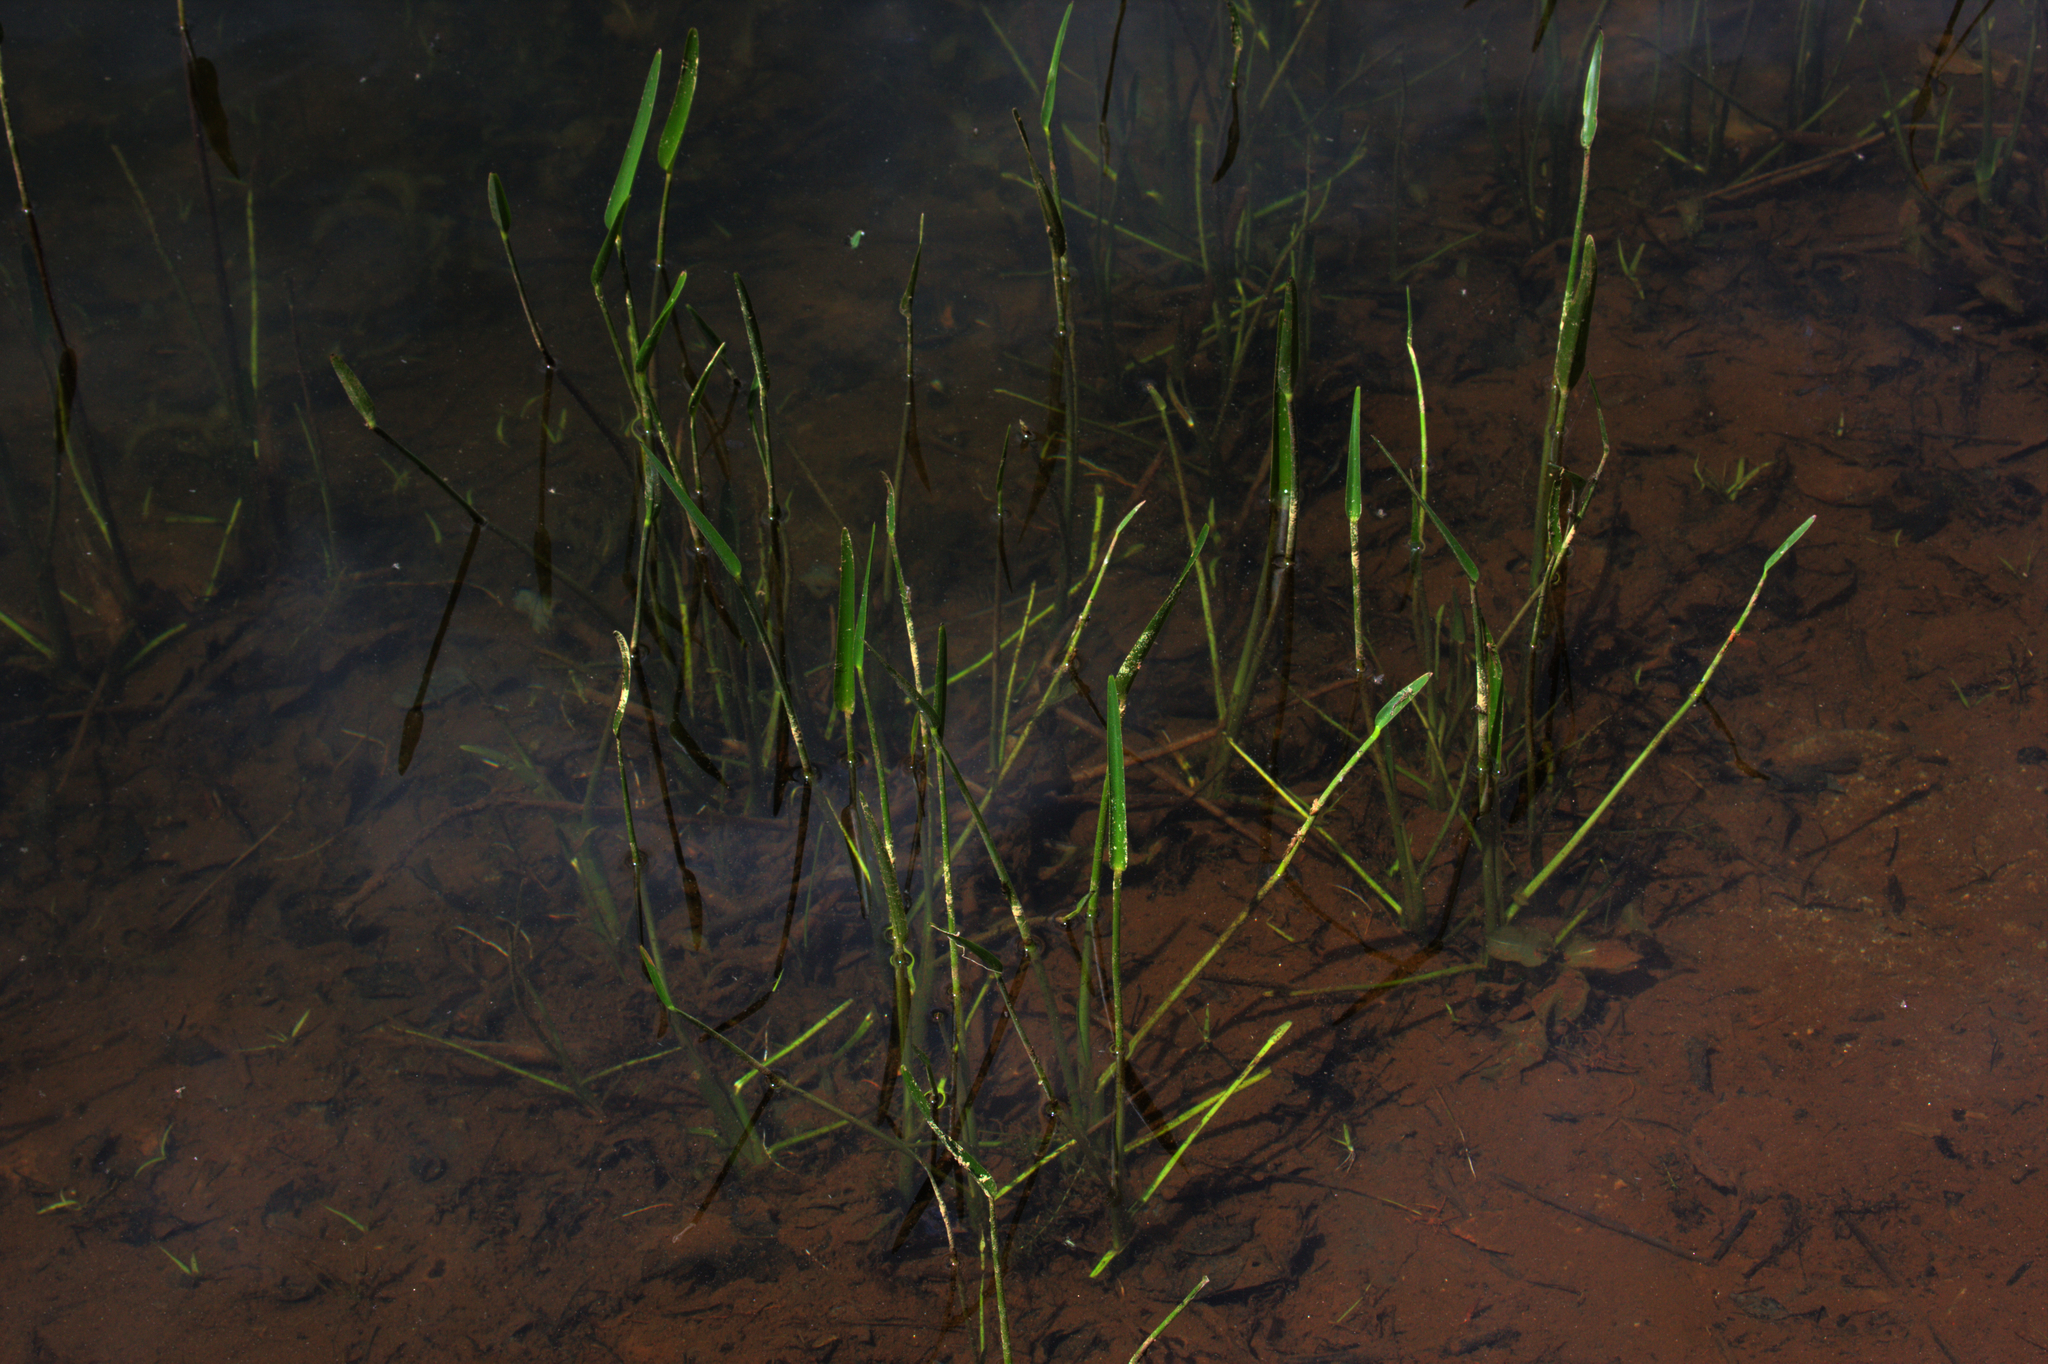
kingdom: Plantae
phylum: Tracheophyta
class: Liliopsida
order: Commelinales
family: Pontederiaceae
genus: Pontederia
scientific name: Pontederia cordata
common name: Pickerelweed
